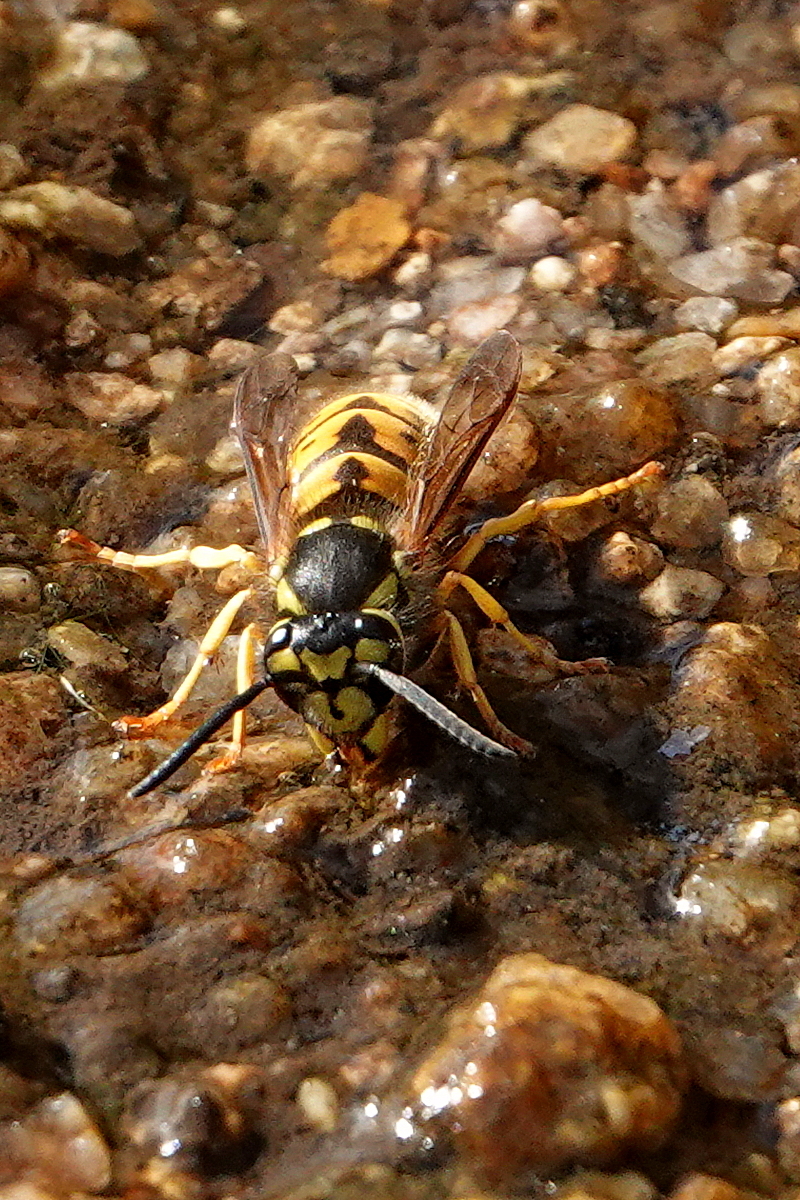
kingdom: Animalia
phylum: Arthropoda
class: Insecta
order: Hymenoptera
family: Vespidae
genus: Vespula
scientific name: Vespula germanica
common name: German wasp
